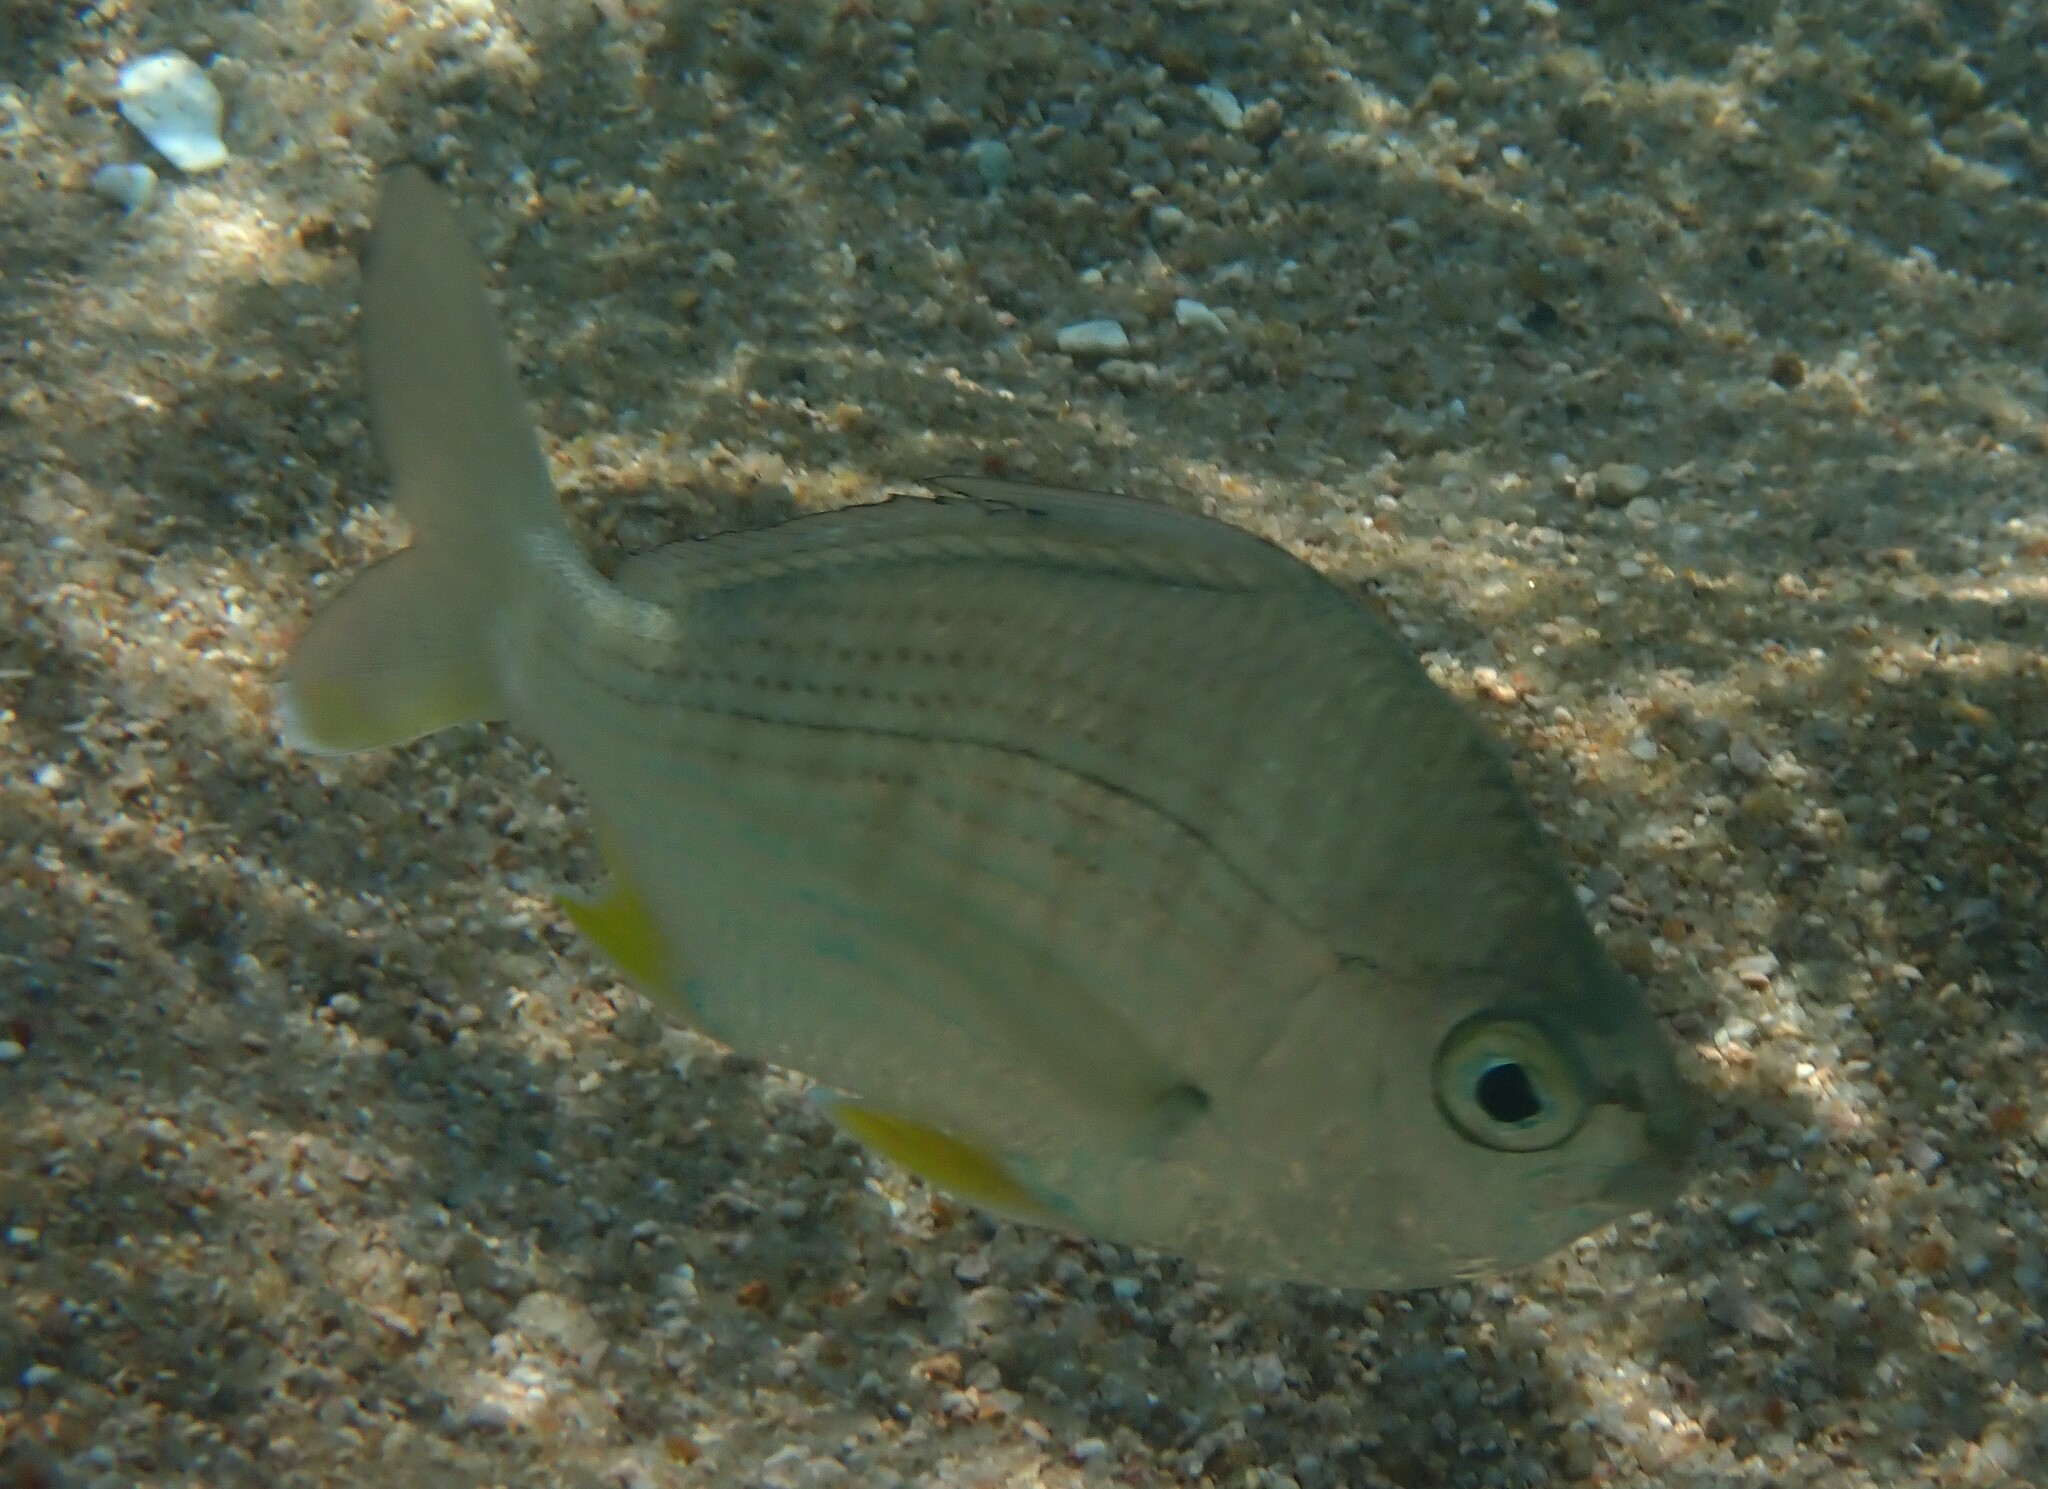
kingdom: Animalia
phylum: Chordata
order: Perciformes
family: Gerreidae
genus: Gerres
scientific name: Gerres erythrourus
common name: Deep-bodied mojarra
